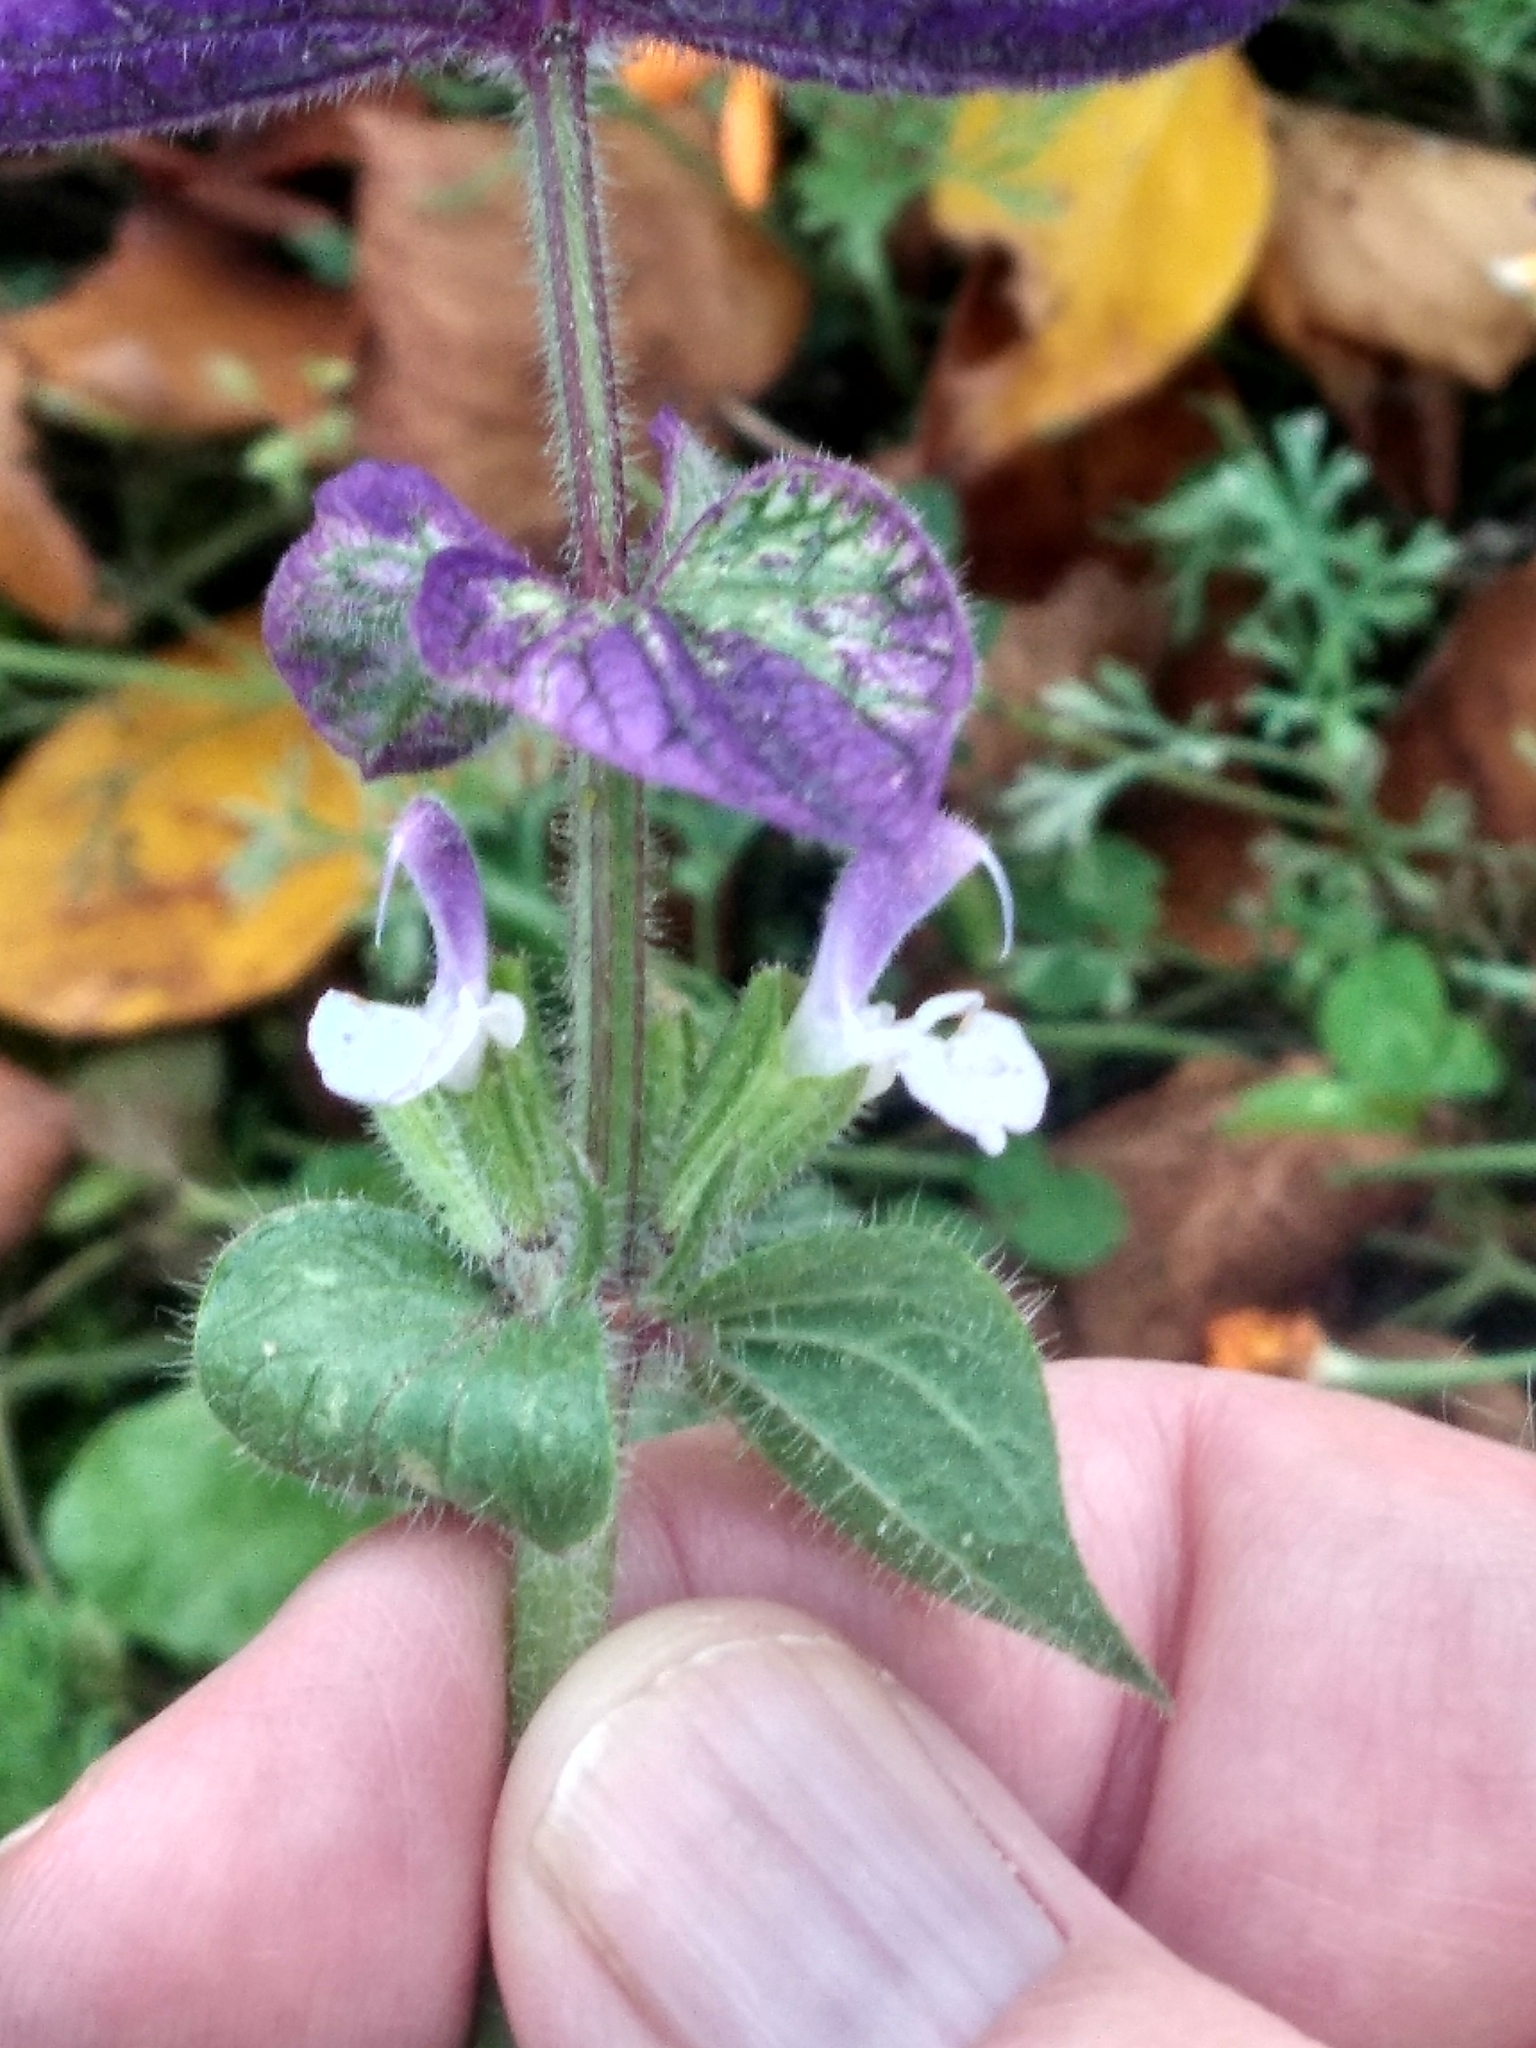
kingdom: Plantae
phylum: Tracheophyta
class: Magnoliopsida
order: Lamiales
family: Lamiaceae
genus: Salvia
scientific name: Salvia viridis
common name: Annual clary
